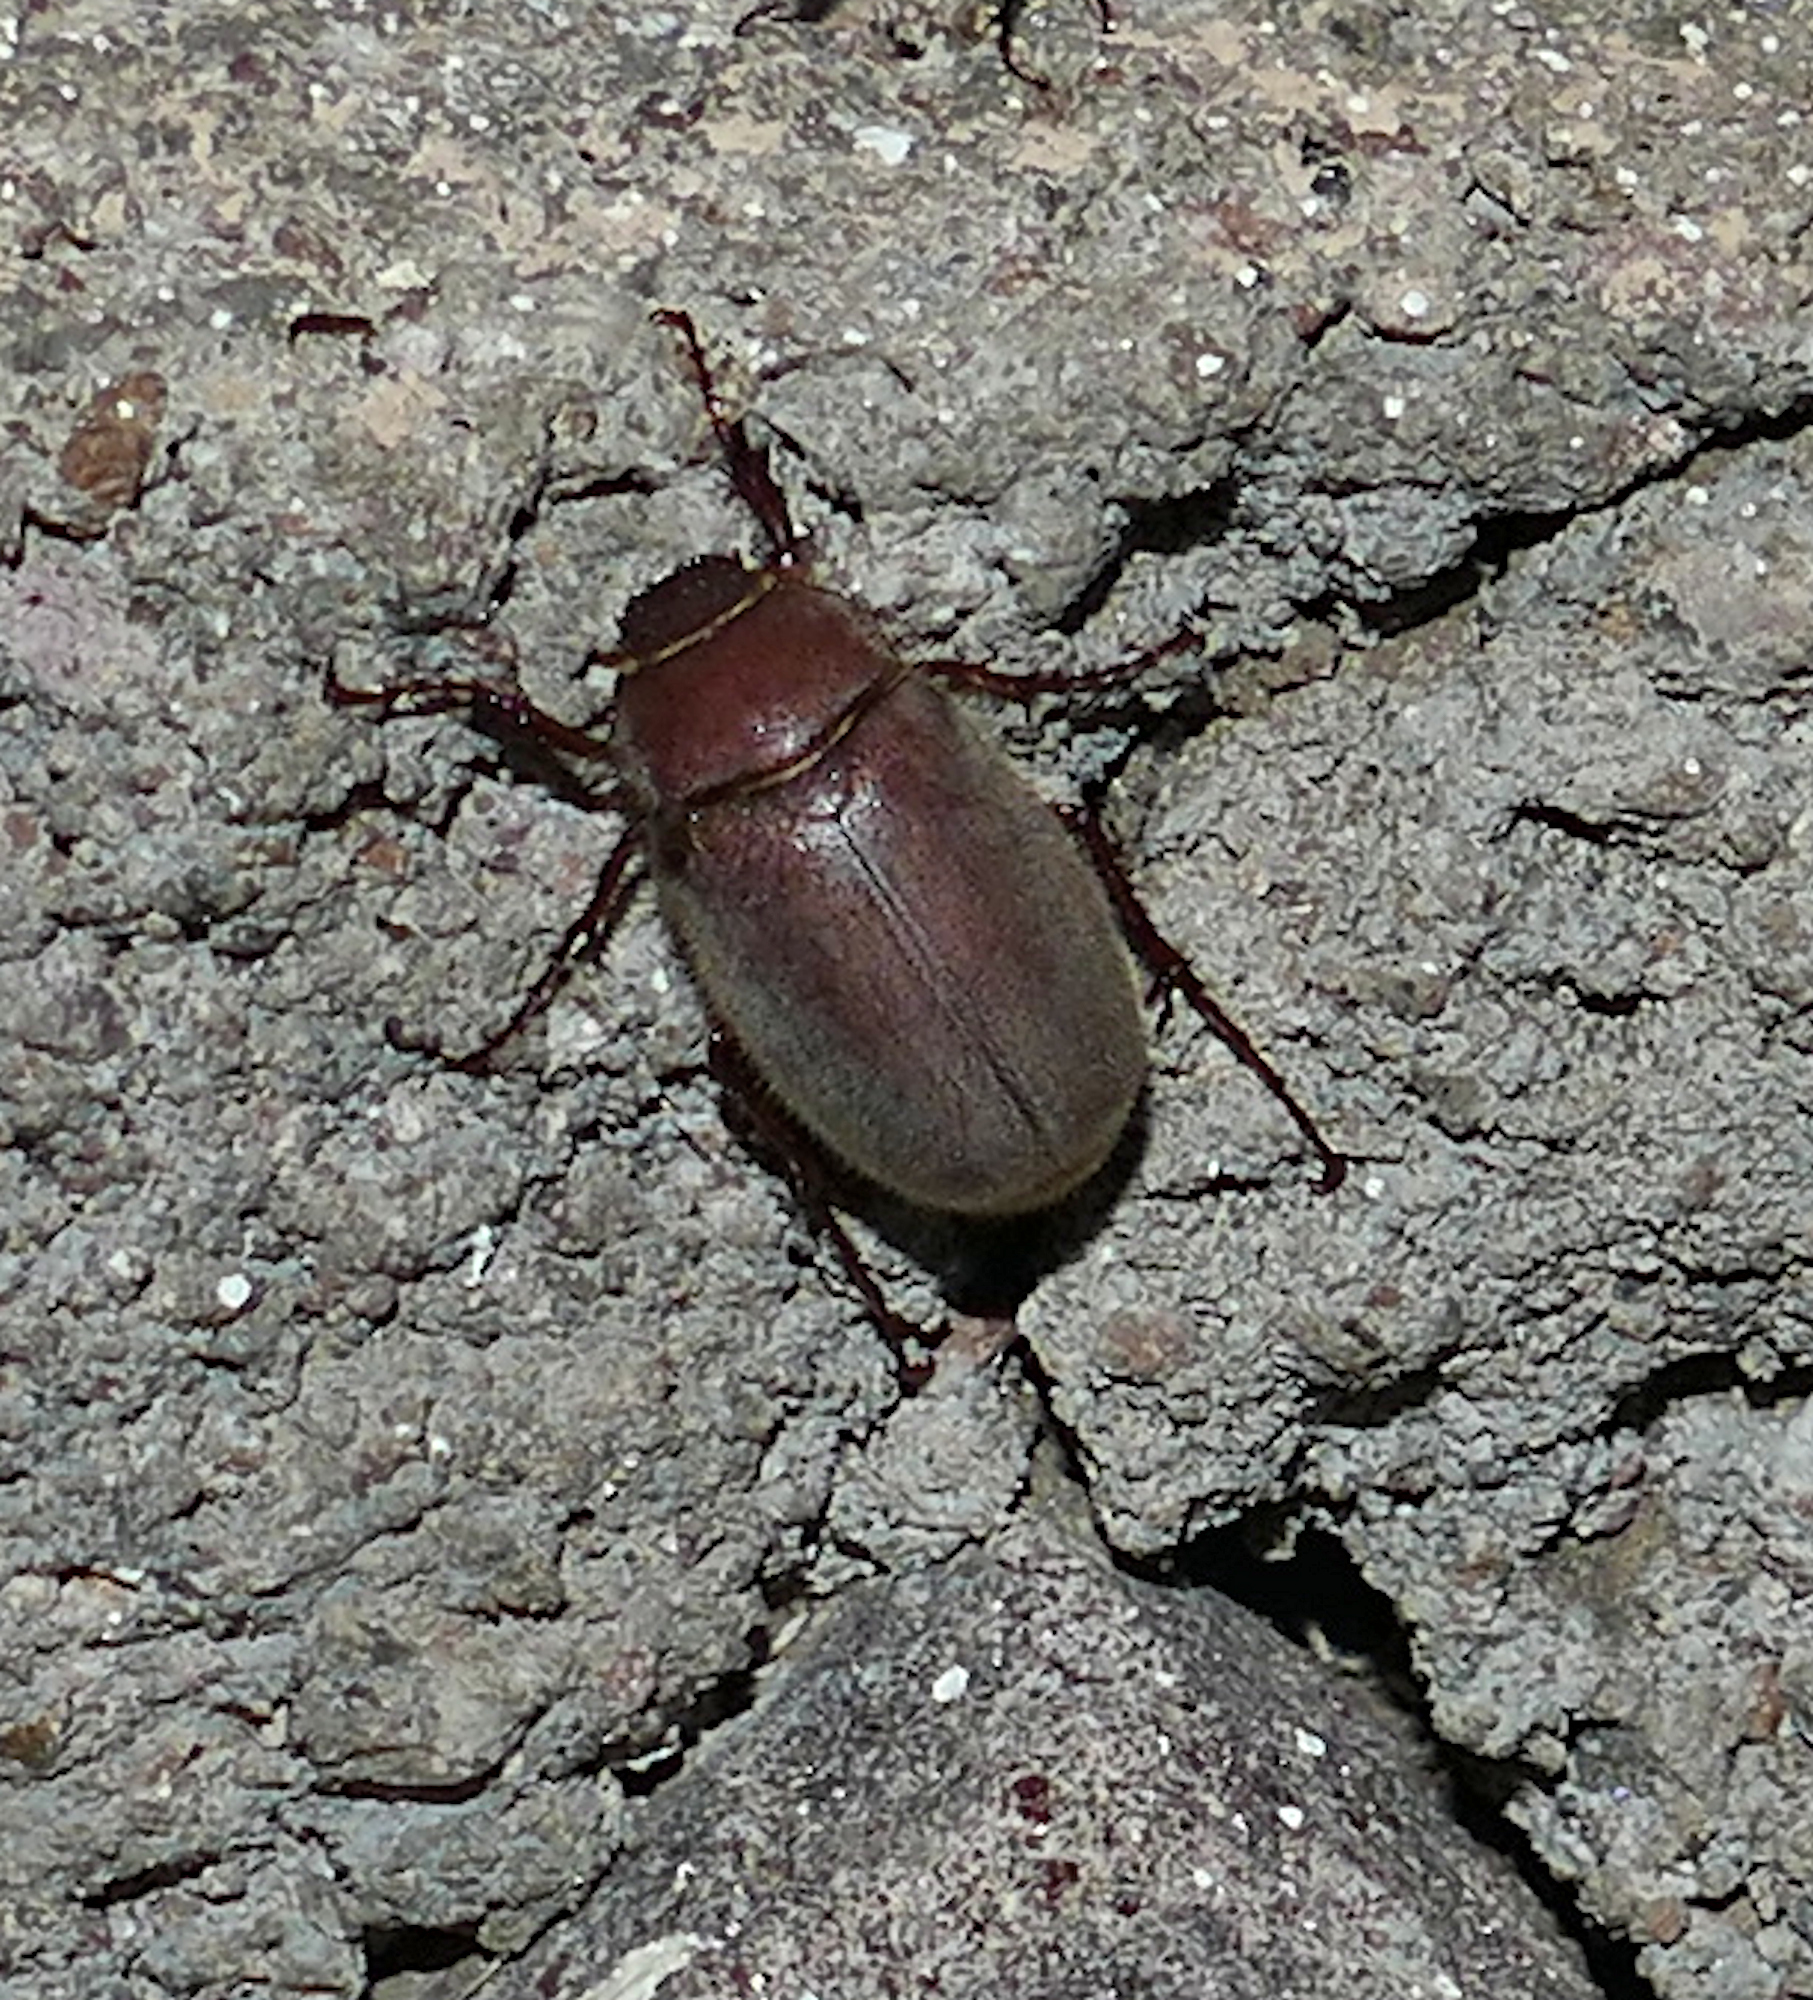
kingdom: Animalia
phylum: Arthropoda
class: Insecta
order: Coleoptera
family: Scarabaeidae
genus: Trichesthes
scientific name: Trichesthes vetula
